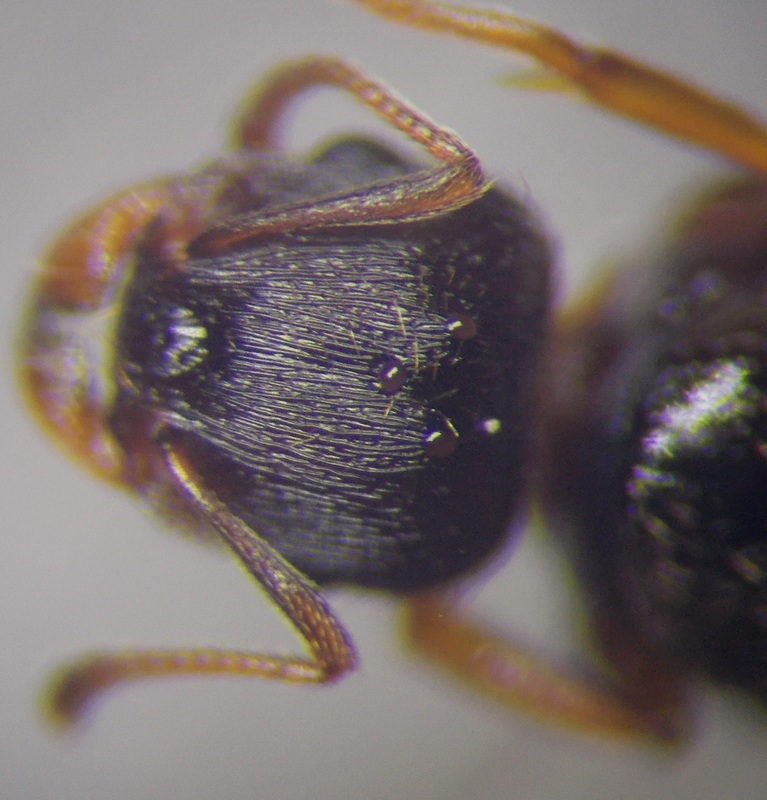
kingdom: Animalia
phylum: Arthropoda
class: Insecta
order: Hymenoptera
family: Formicidae
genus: Tetramorium
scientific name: Tetramorium caespitum
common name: Pavement ant
